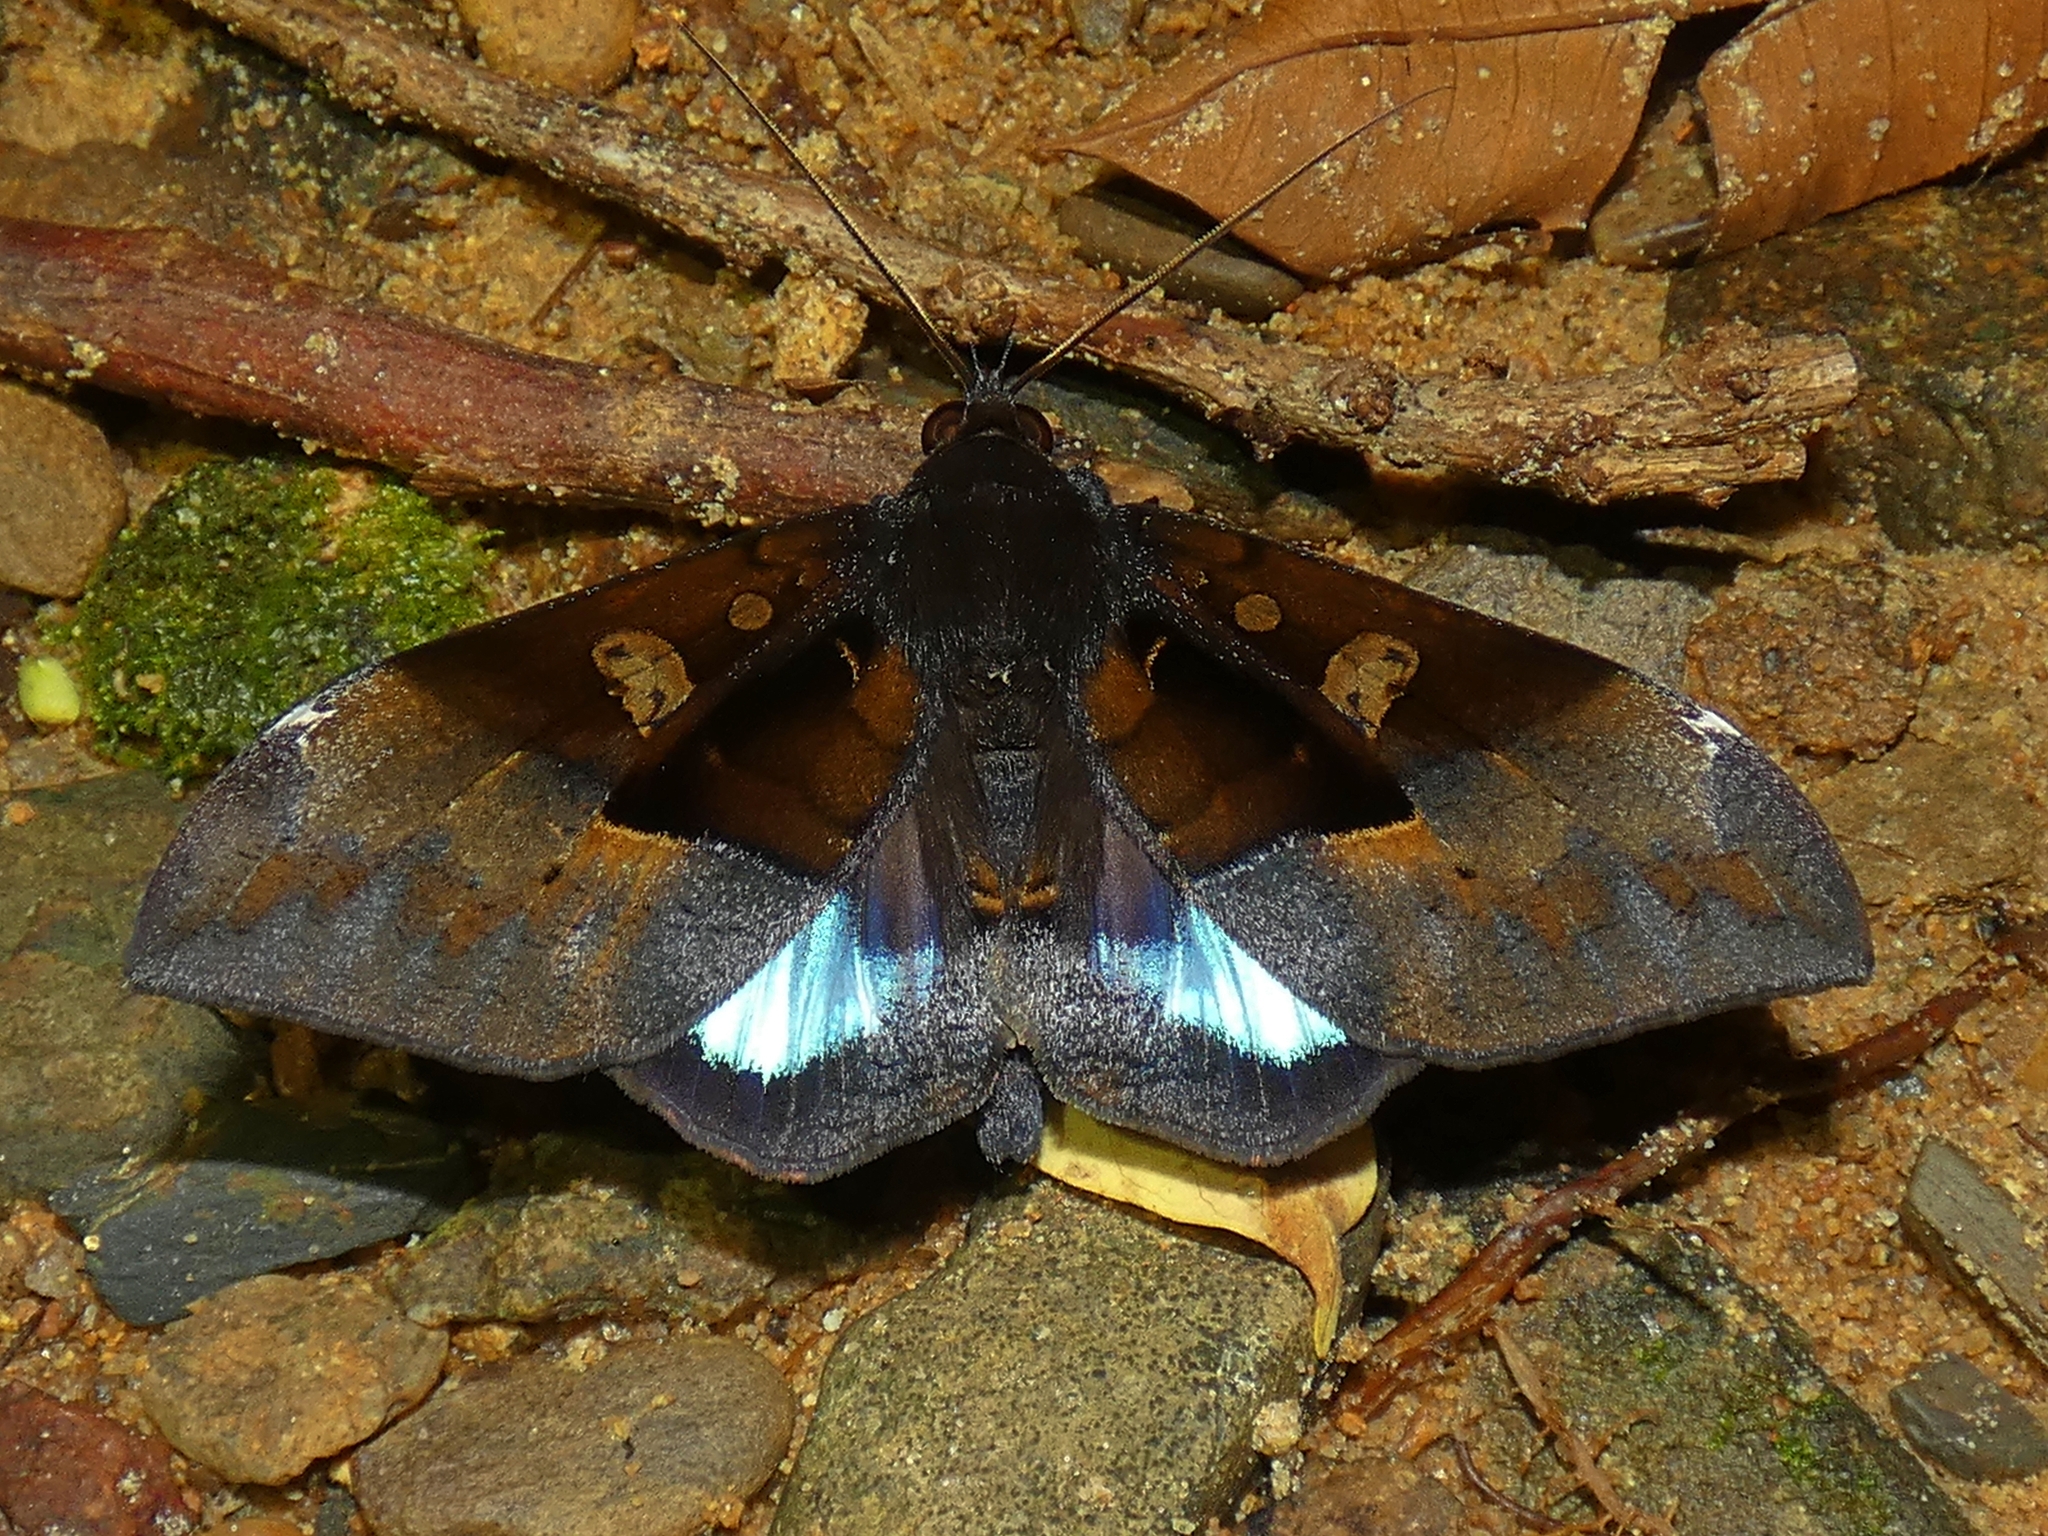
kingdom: Animalia
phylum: Arthropoda
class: Insecta
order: Lepidoptera
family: Erebidae
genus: Ischyja
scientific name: Ischyja manlia
